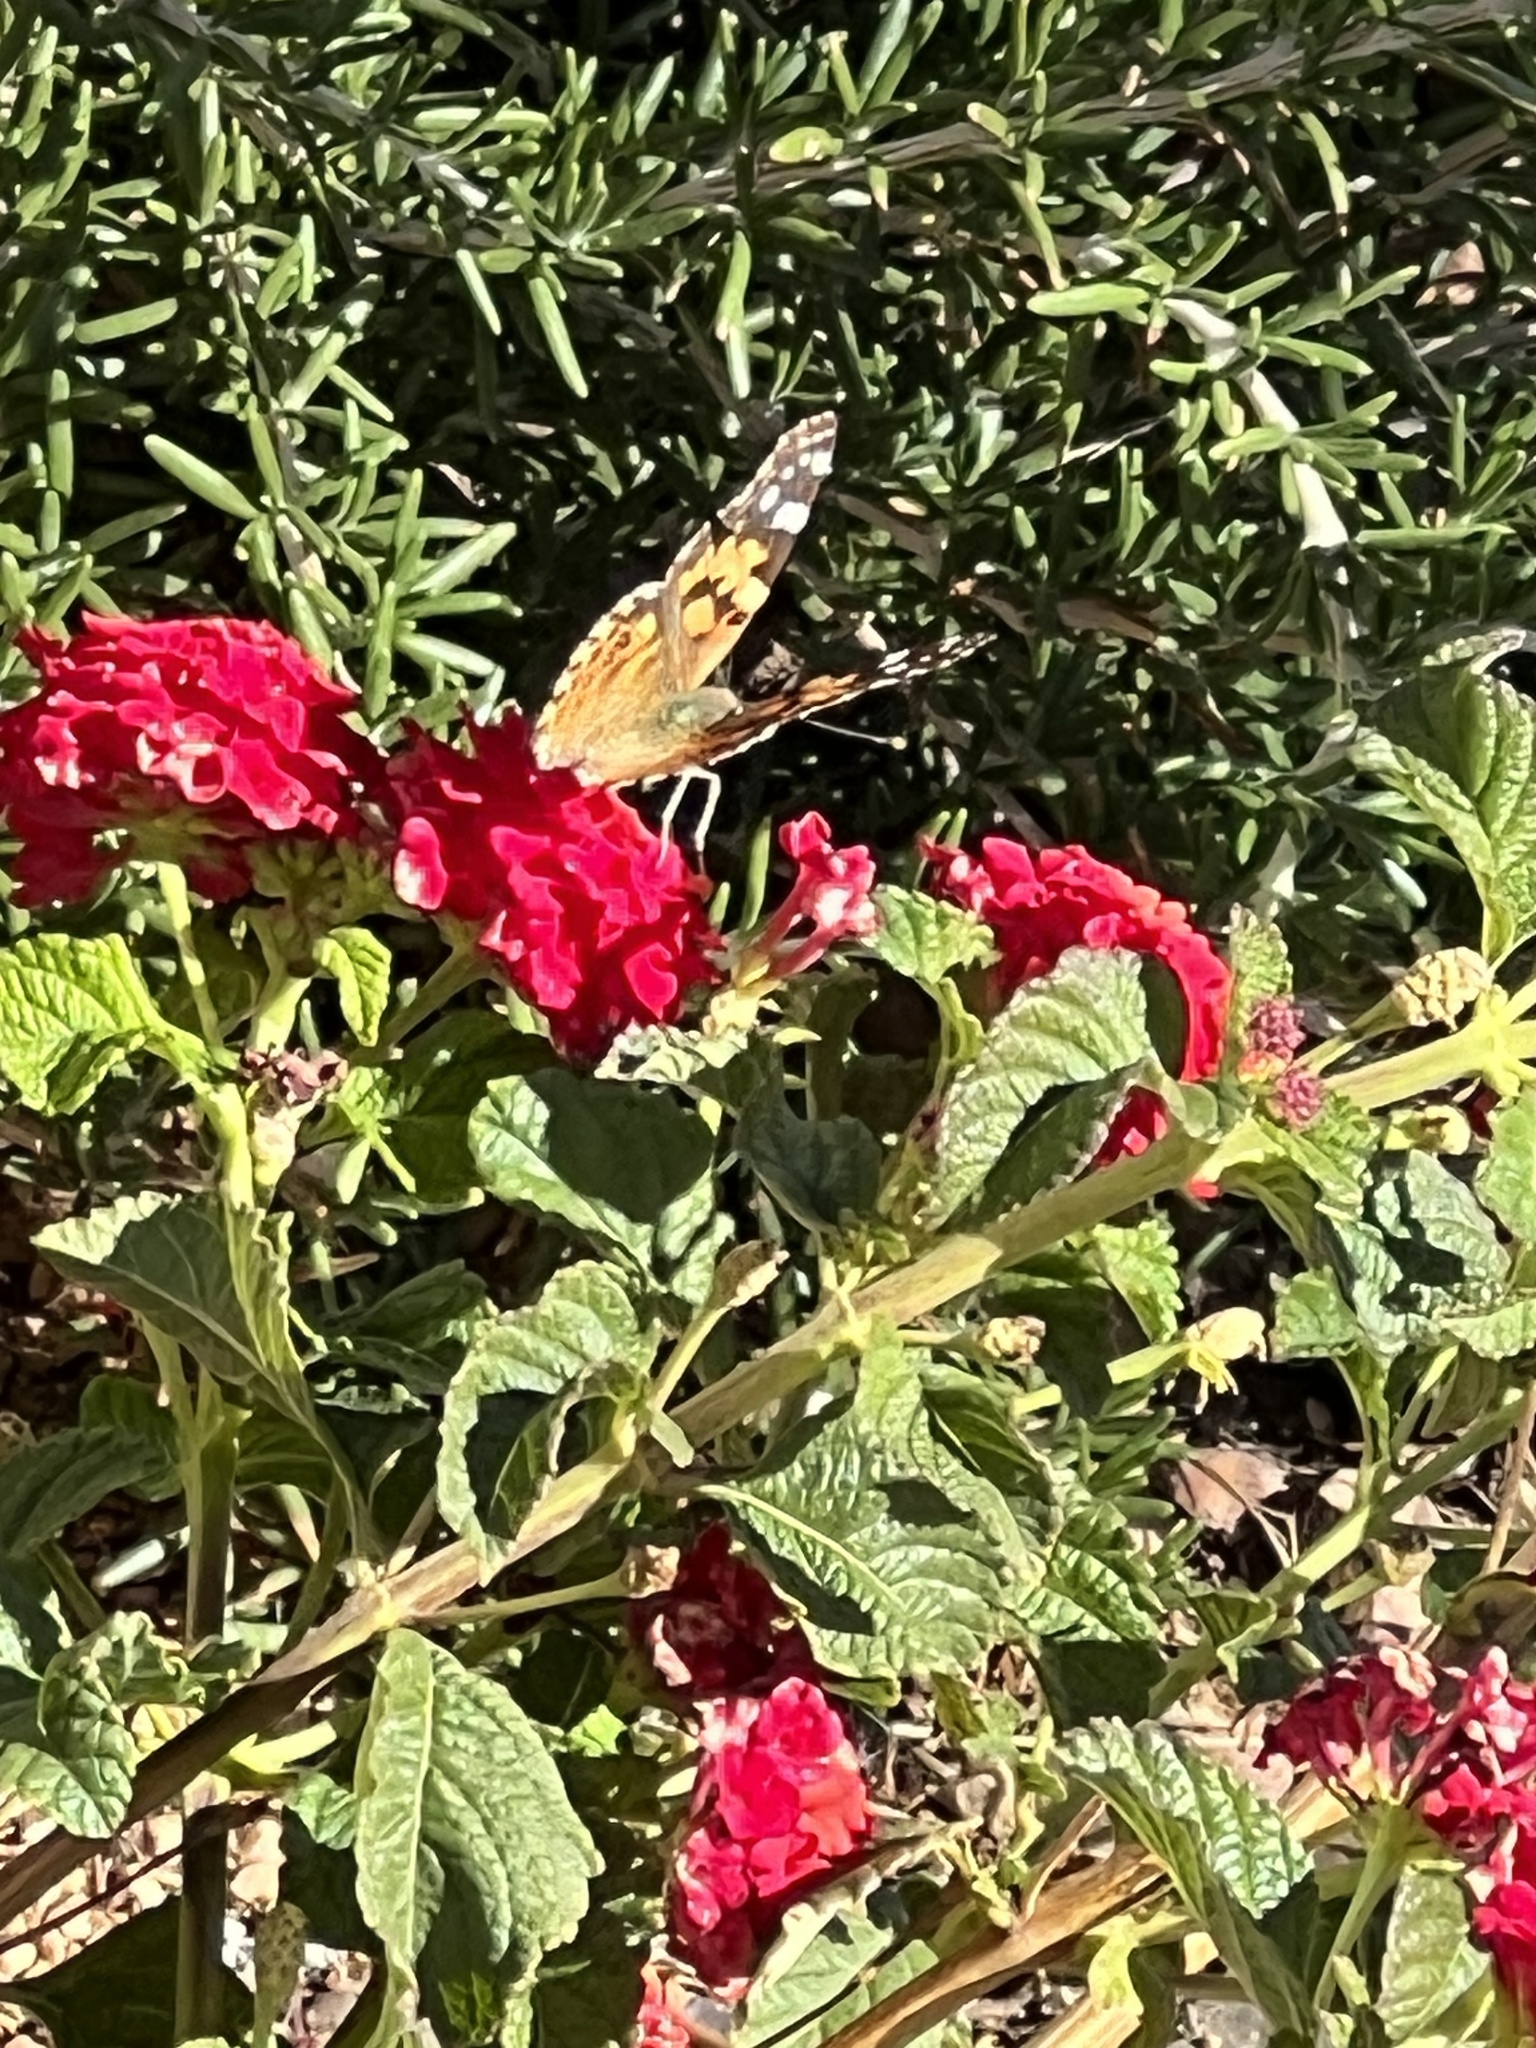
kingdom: Animalia
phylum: Arthropoda
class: Insecta
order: Lepidoptera
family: Nymphalidae
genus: Vanessa
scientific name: Vanessa cardui
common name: Painted lady
